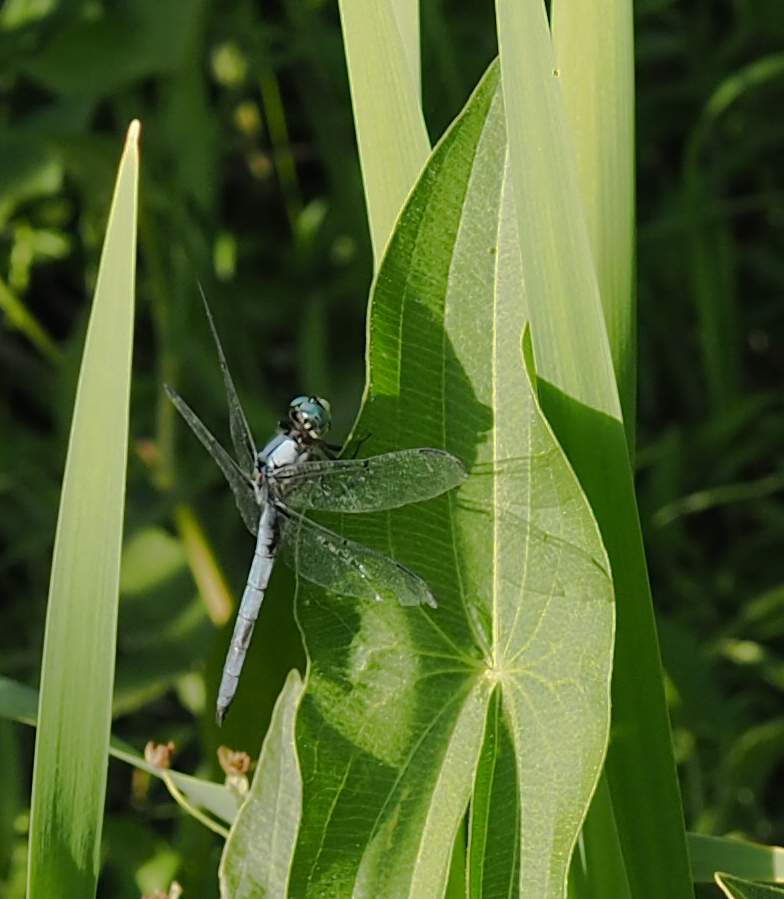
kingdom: Animalia
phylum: Arthropoda
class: Insecta
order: Odonata
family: Libellulidae
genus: Libellula
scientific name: Libellula vibrans
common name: Great blue skimmer
